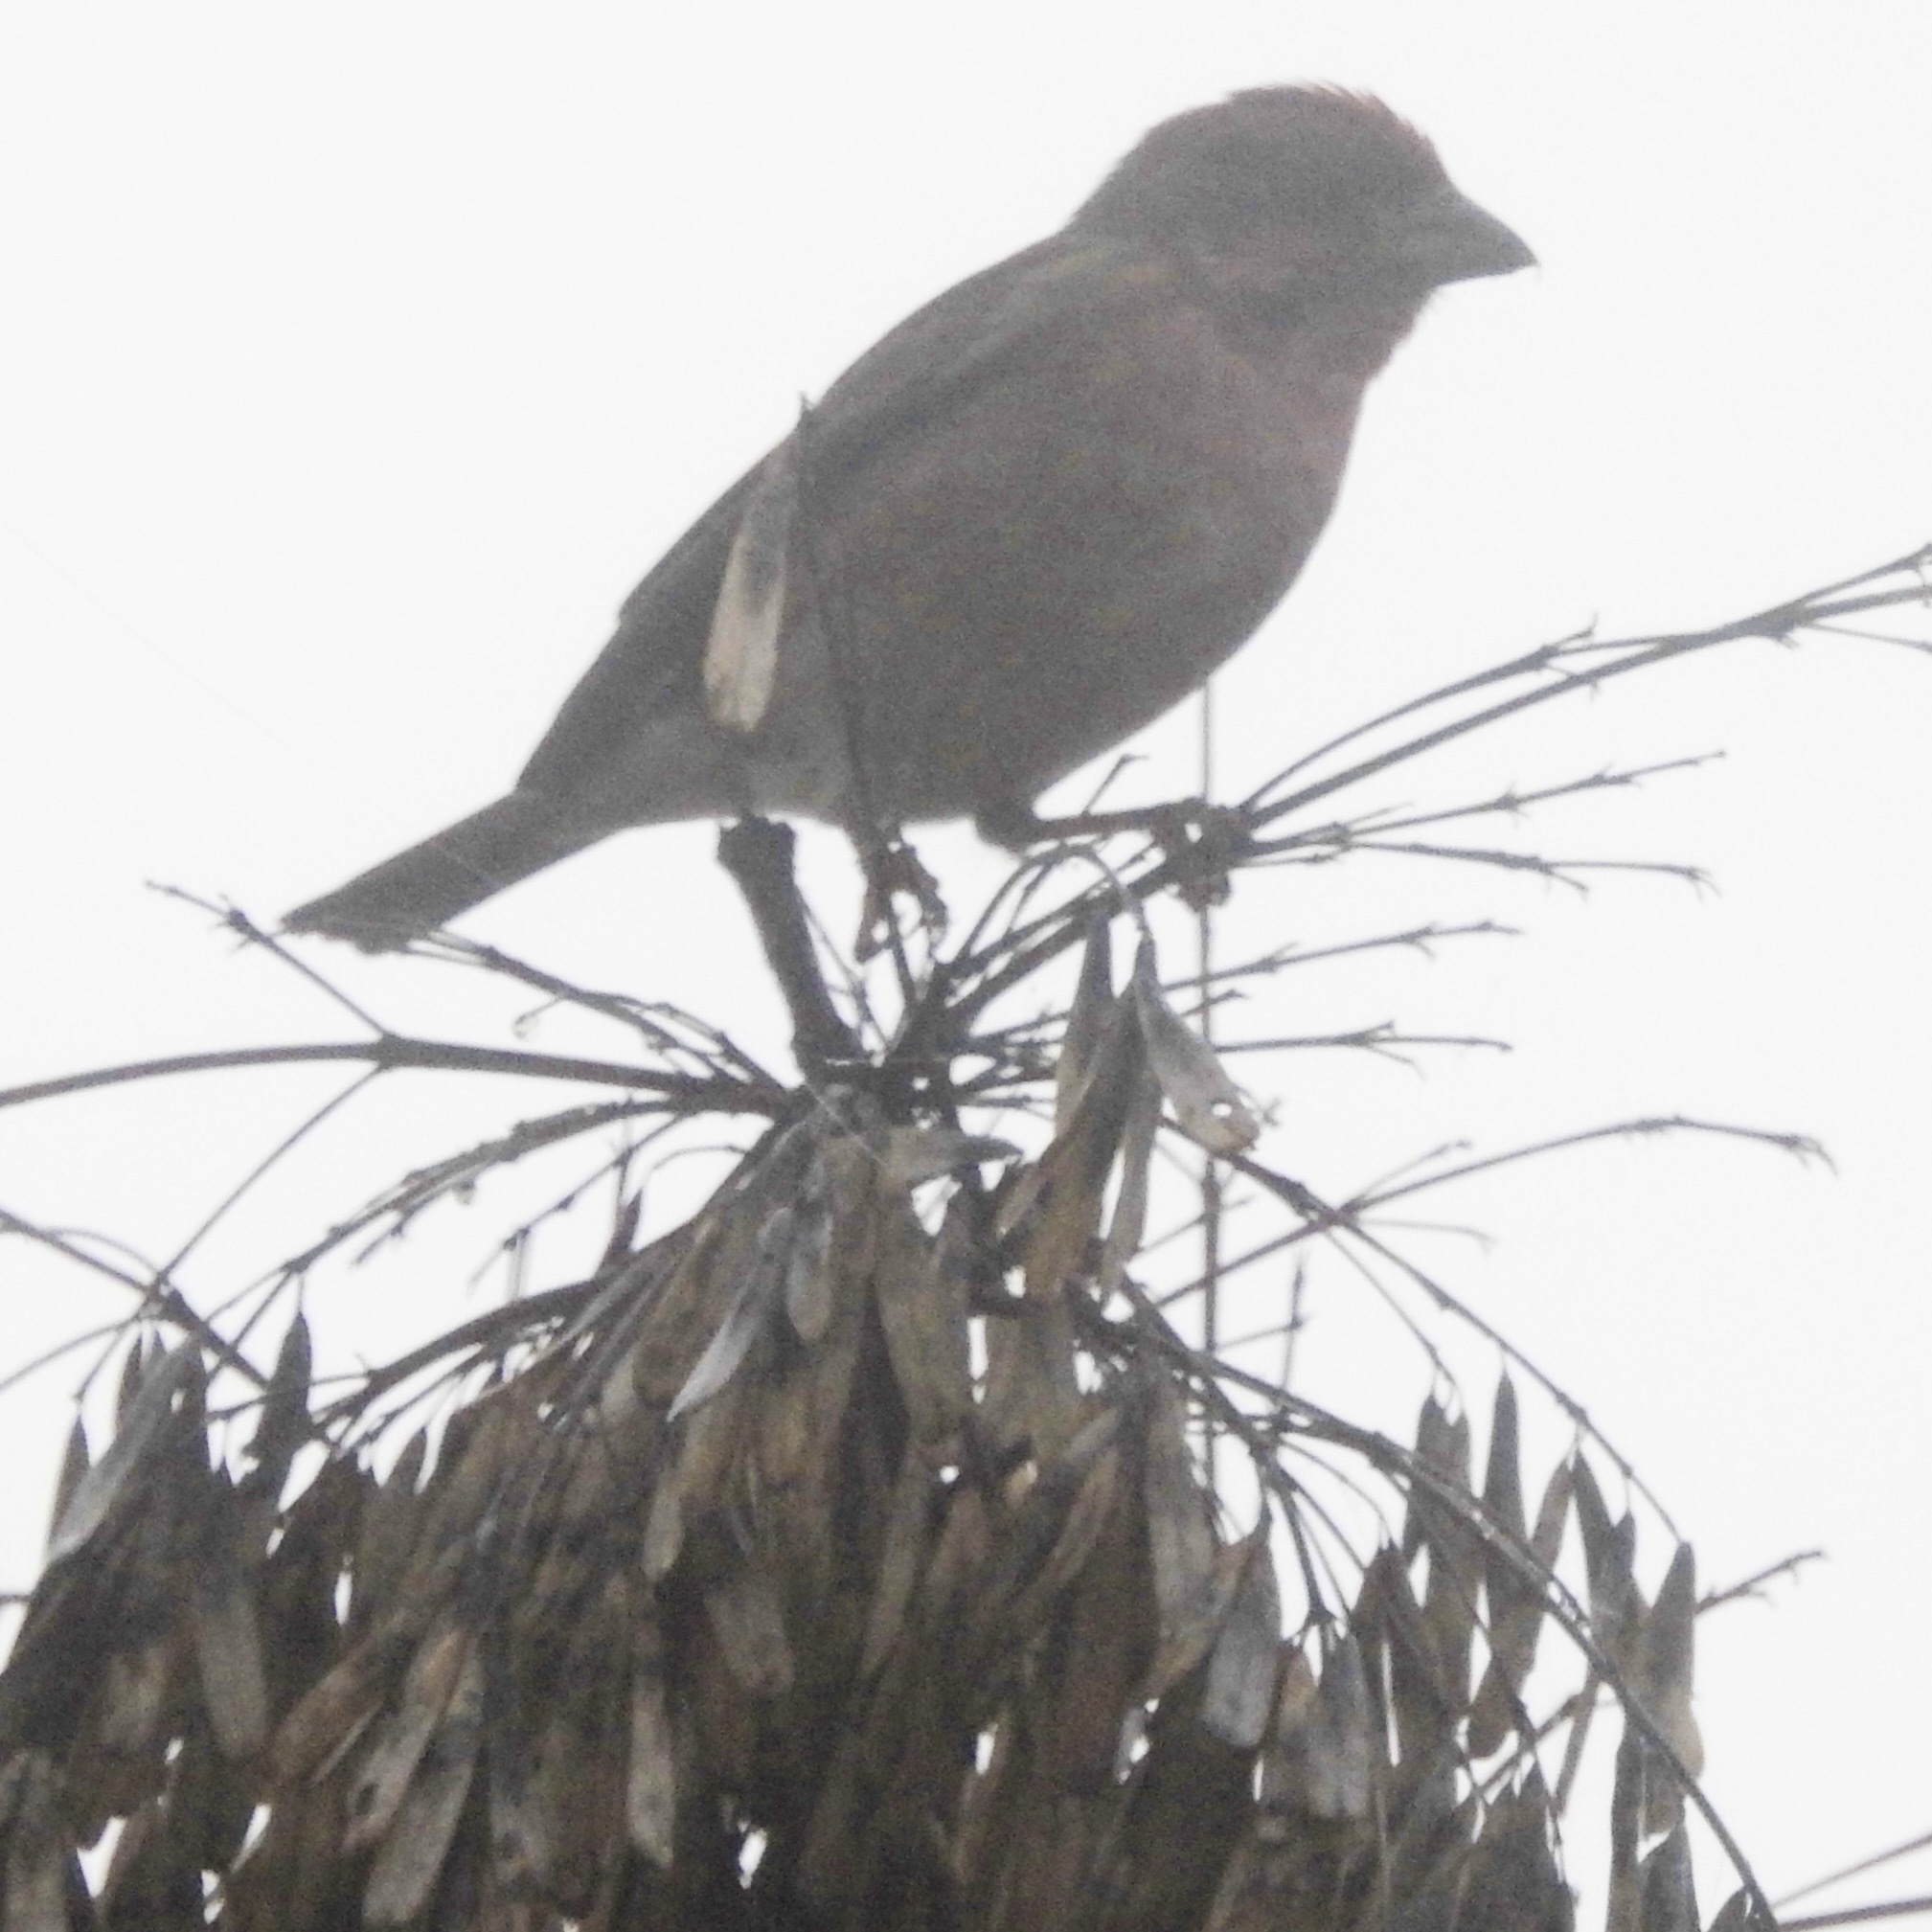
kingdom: Animalia
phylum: Chordata
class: Aves
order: Passeriformes
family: Fringillidae
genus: Haemorhous
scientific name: Haemorhous mexicanus
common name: House finch
